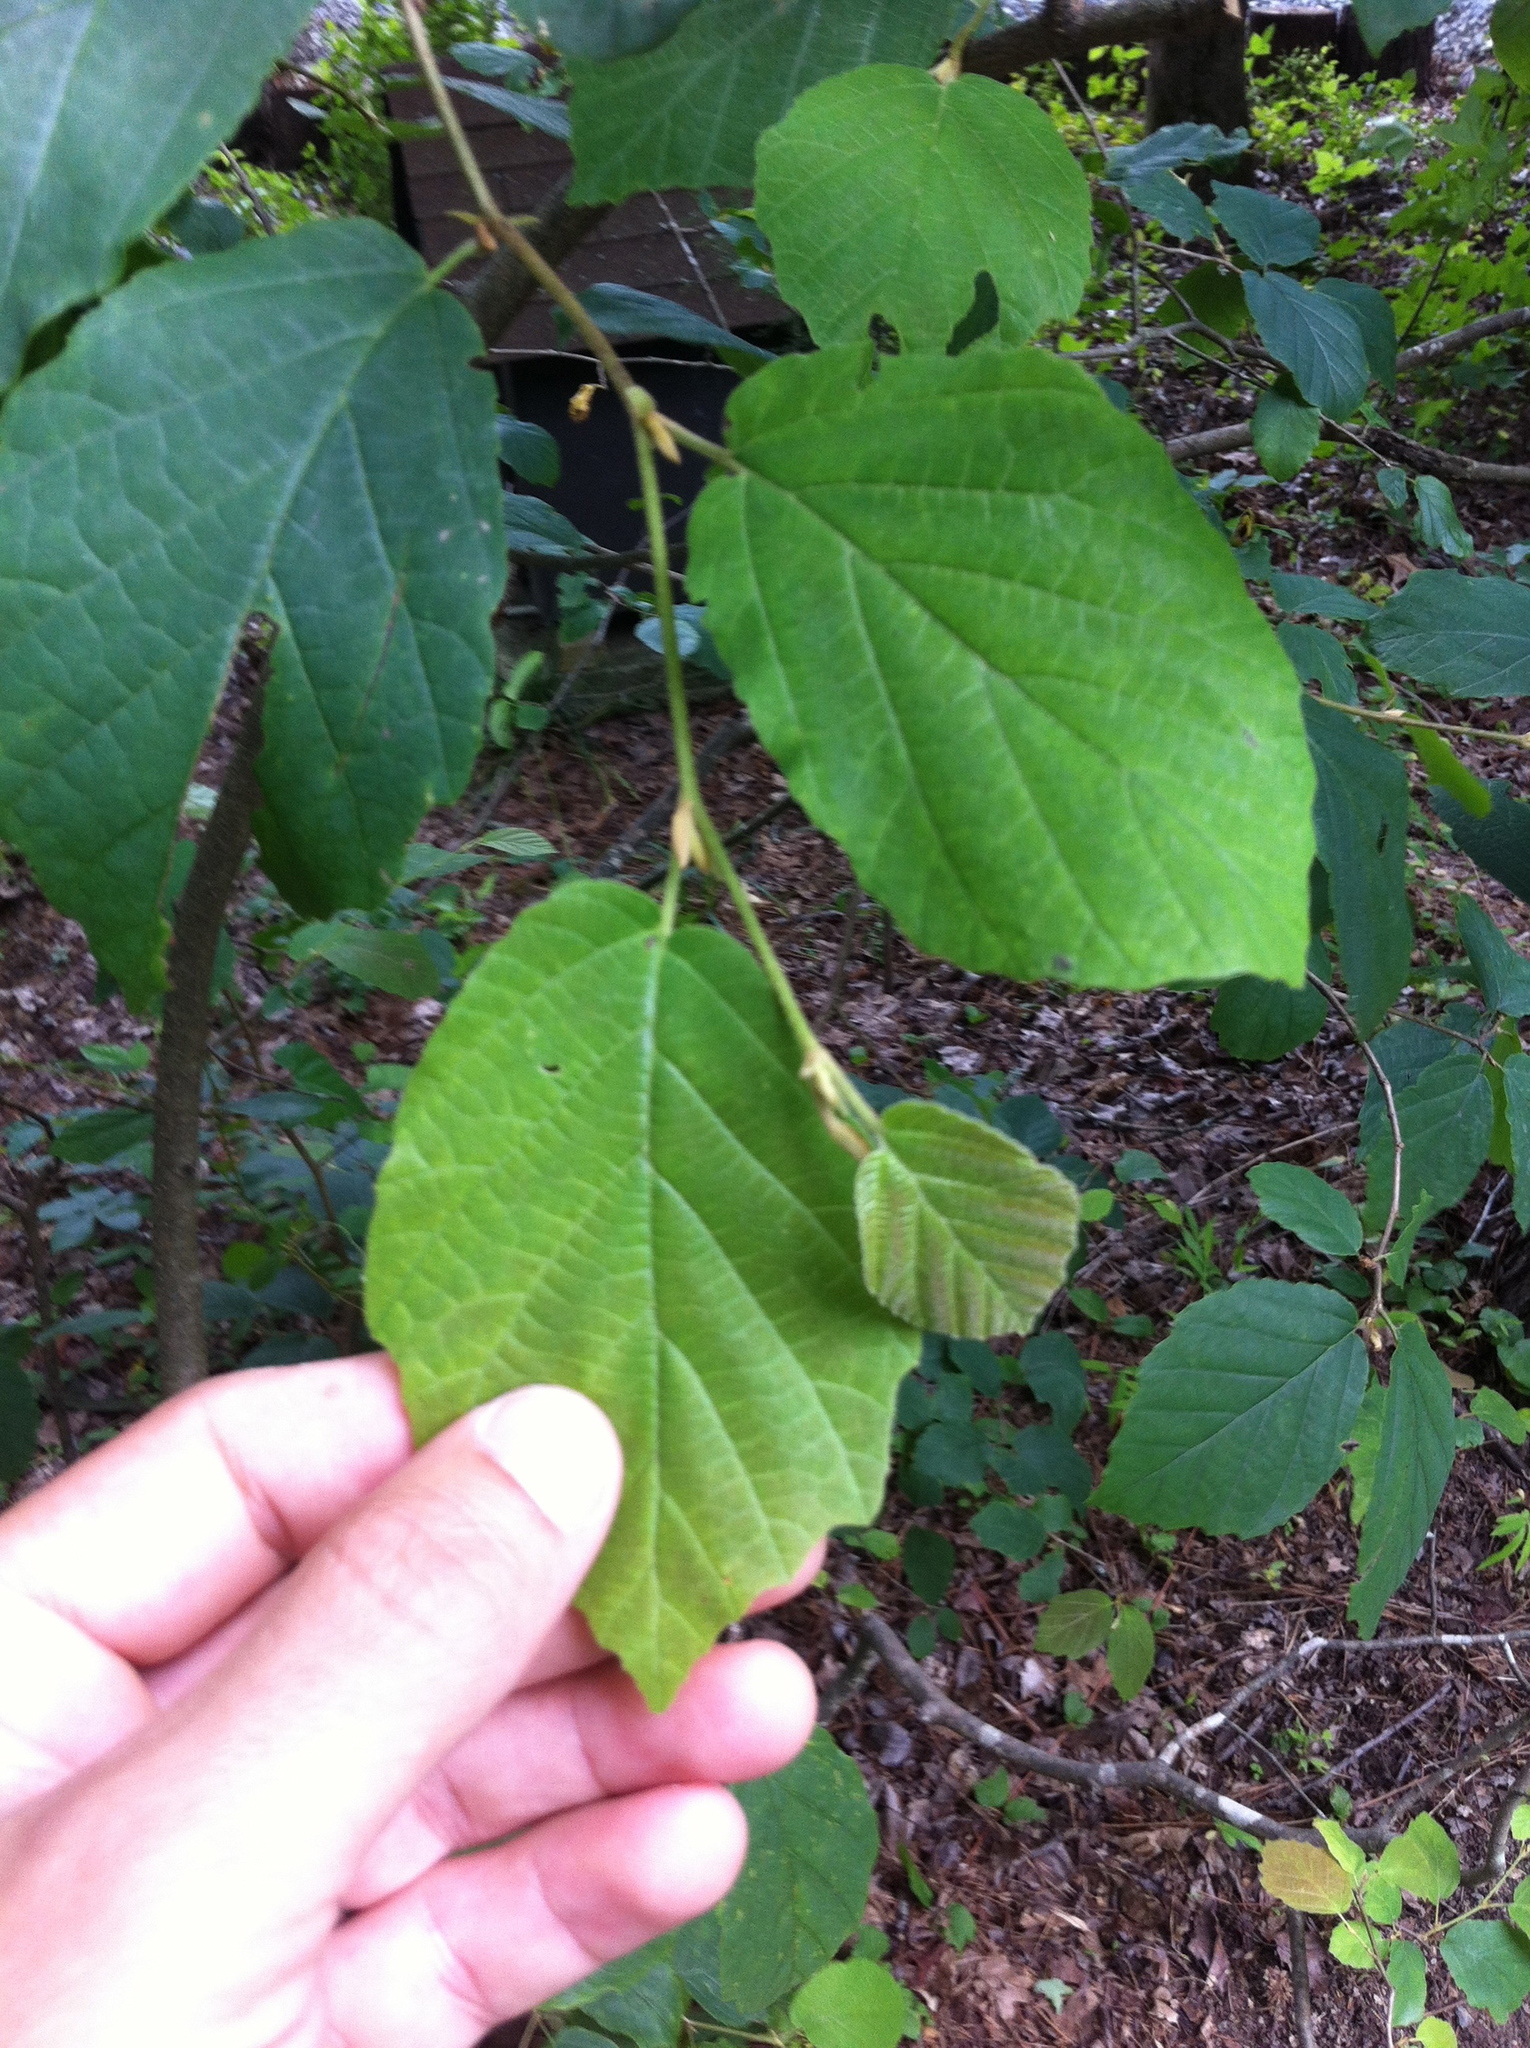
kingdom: Plantae
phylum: Tracheophyta
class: Magnoliopsida
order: Saxifragales
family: Hamamelidaceae
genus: Hamamelis
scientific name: Hamamelis virginiana
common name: Witch-hazel
